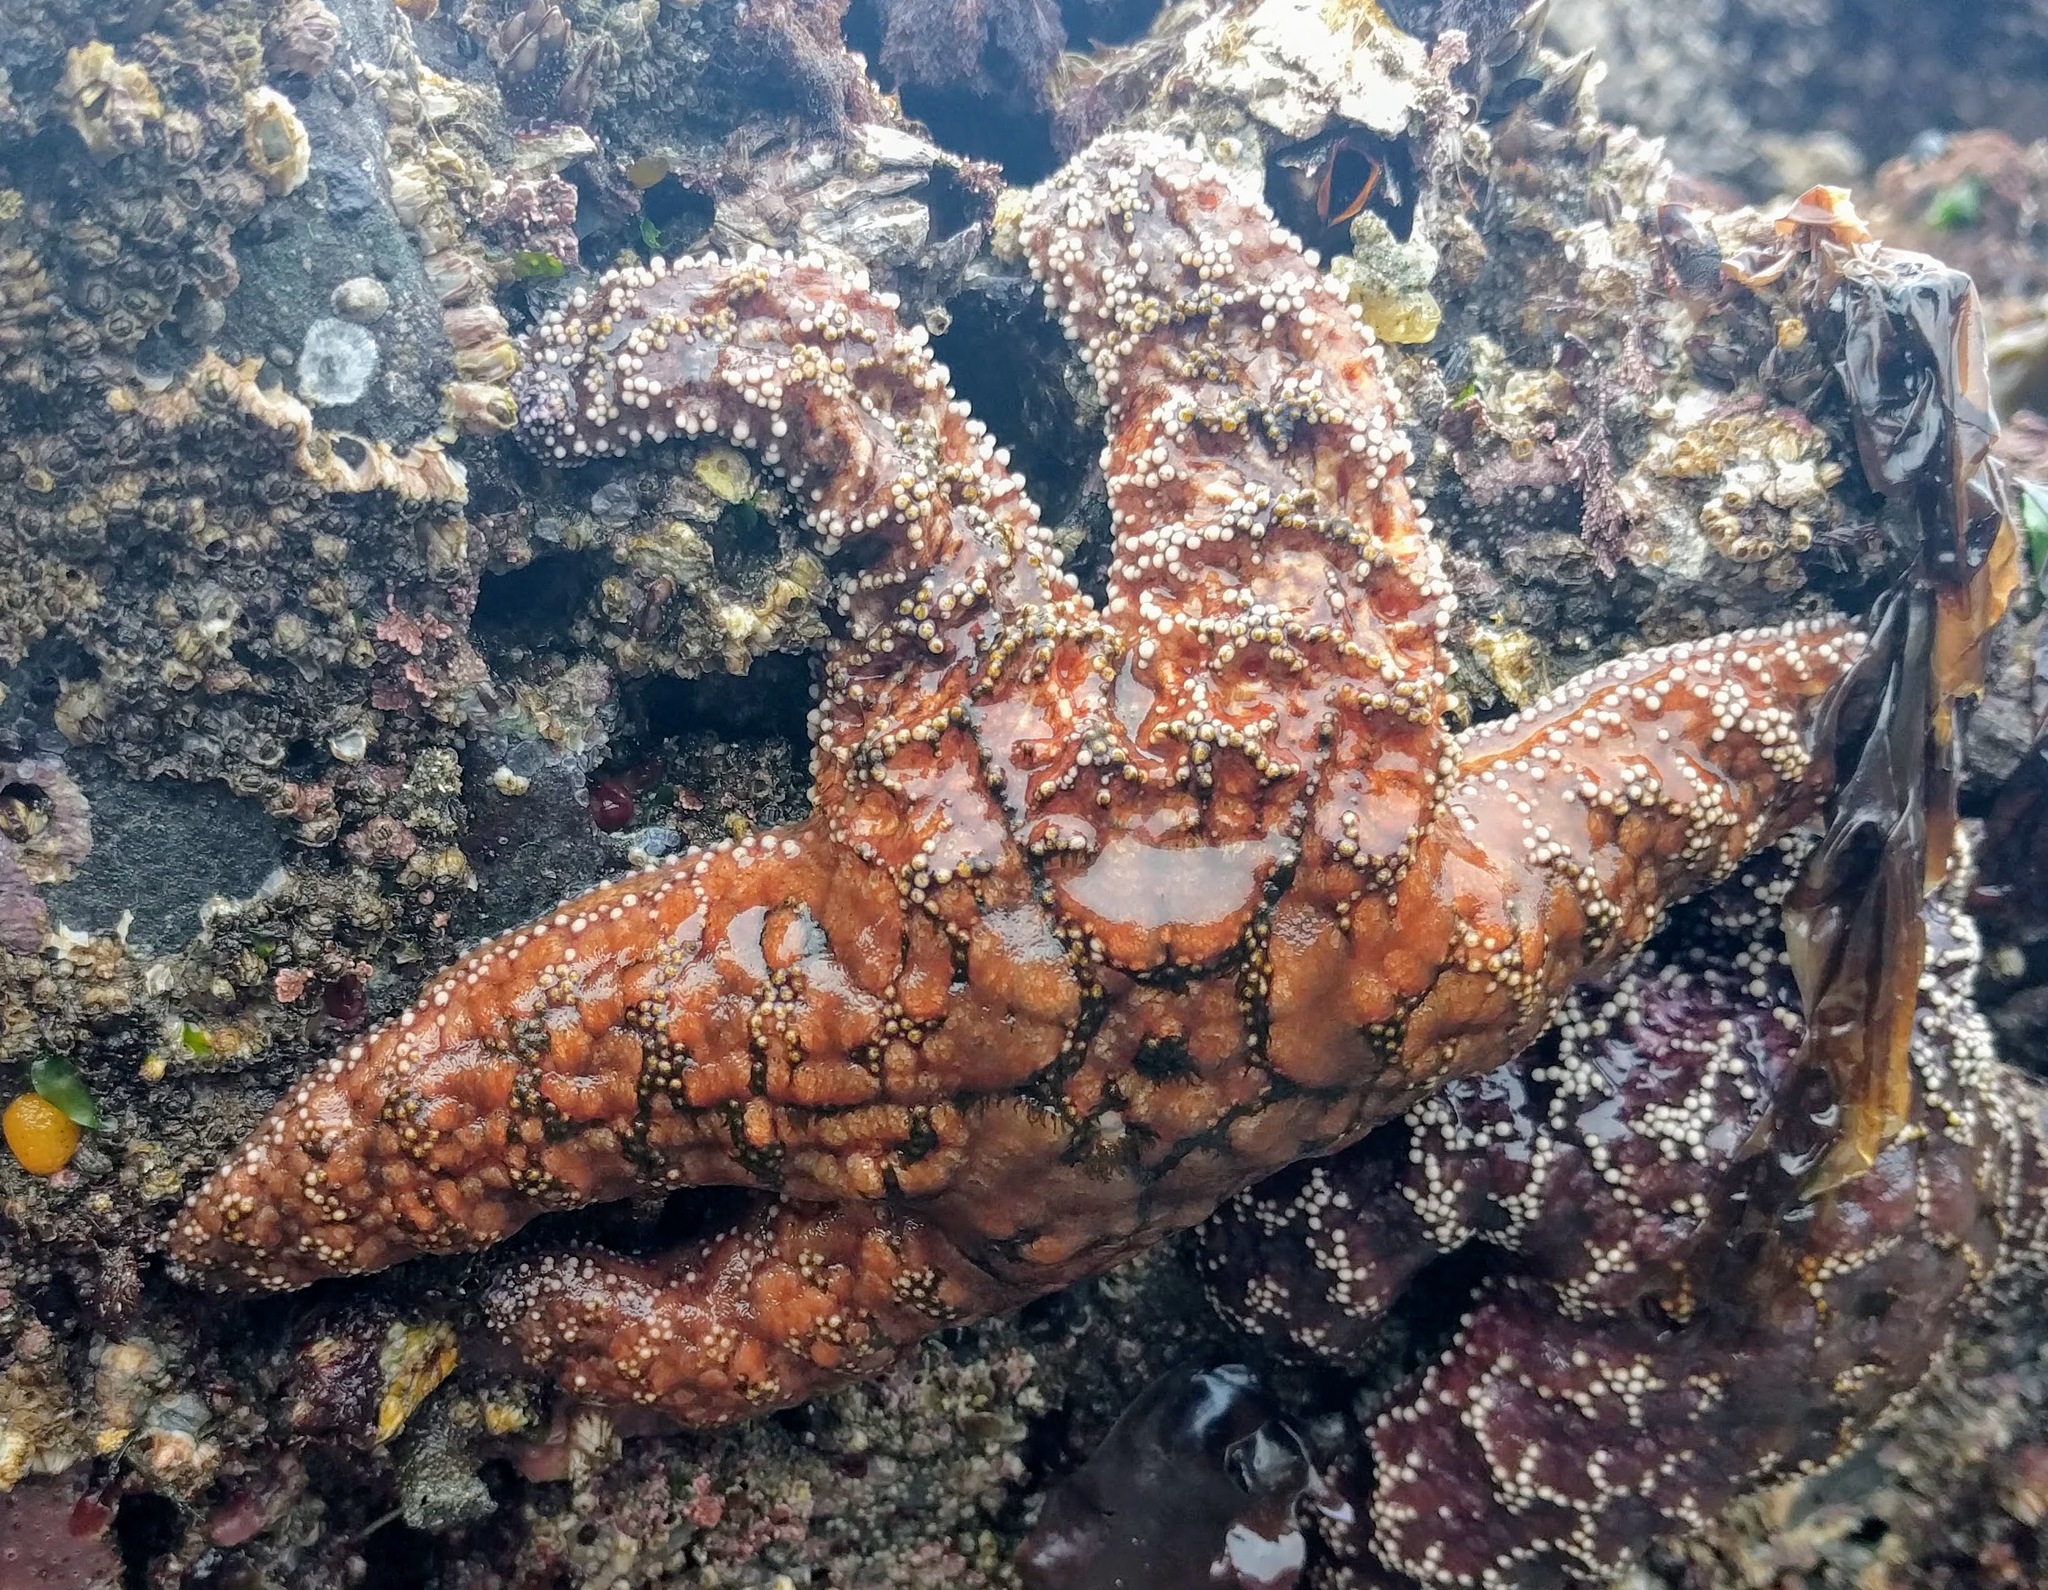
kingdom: Animalia
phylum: Echinodermata
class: Asteroidea
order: Forcipulatida
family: Asteriidae
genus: Pisaster
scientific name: Pisaster ochraceus
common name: Ochre stars
